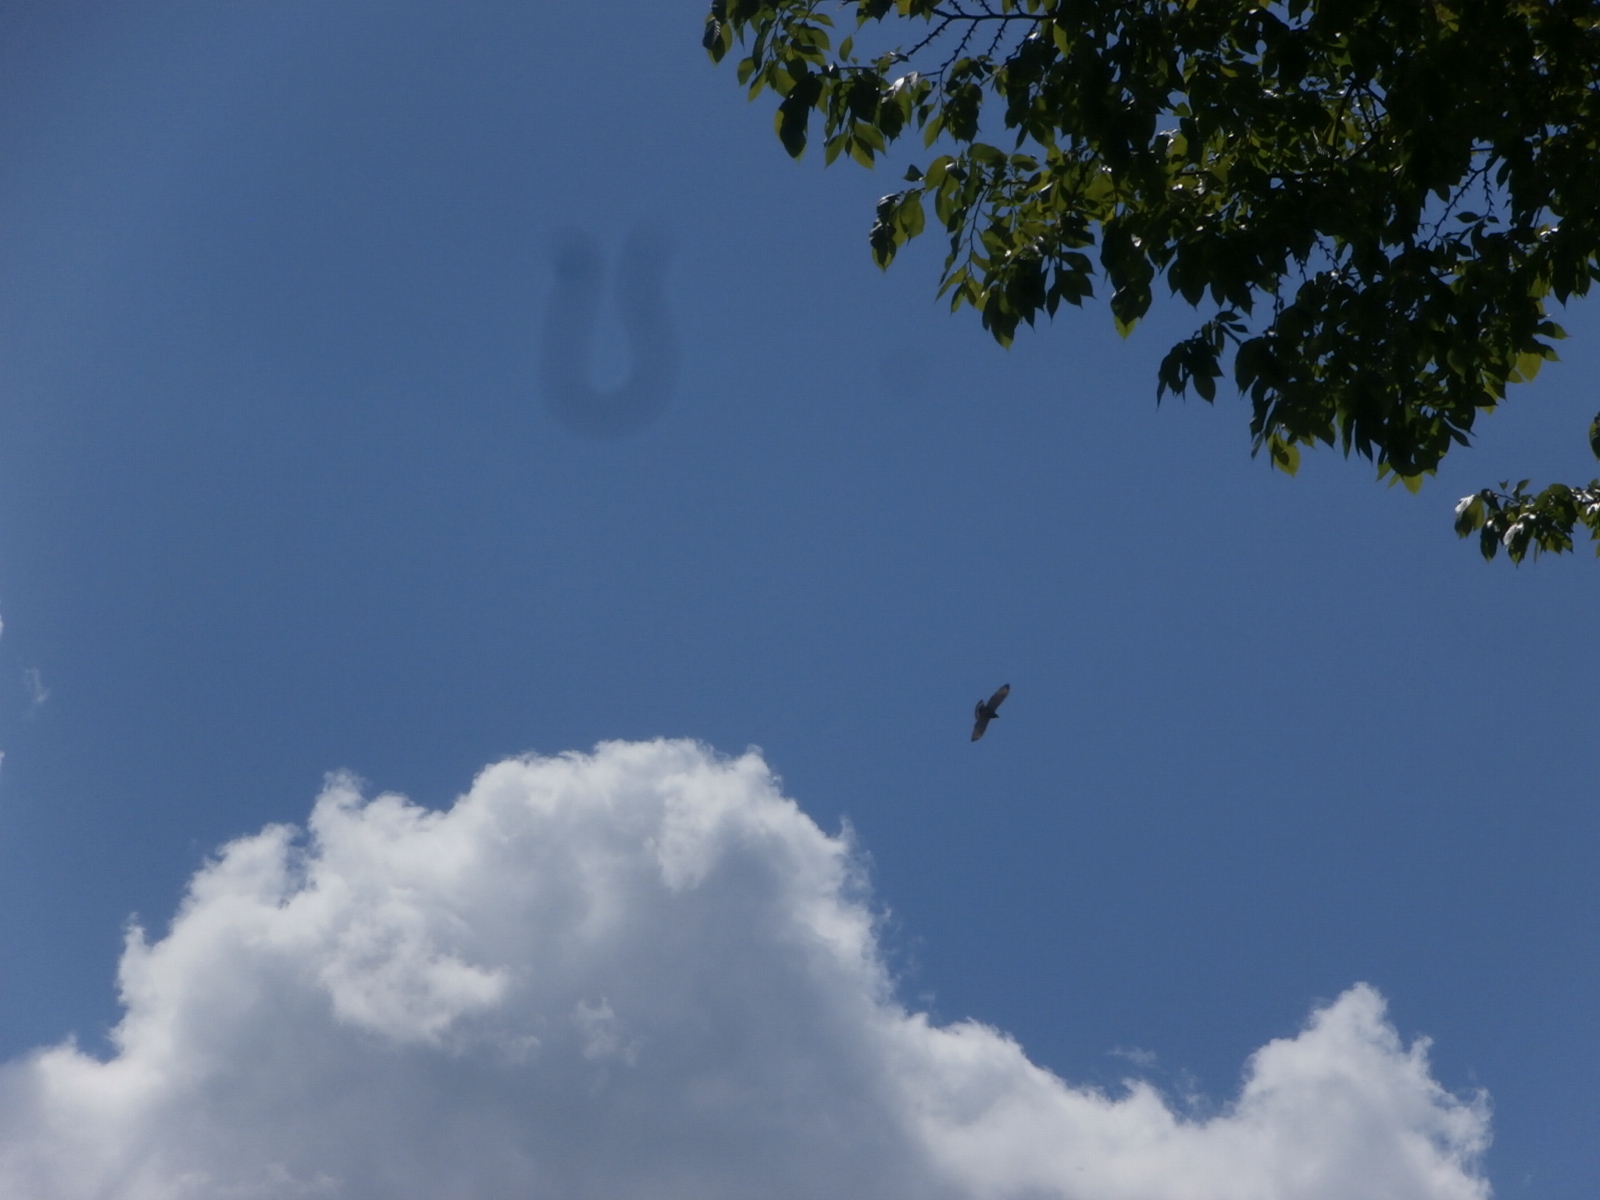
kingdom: Animalia
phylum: Chordata
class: Aves
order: Accipitriformes
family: Accipitridae
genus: Buteo
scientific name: Buteo platypterus
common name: Broad-winged hawk
